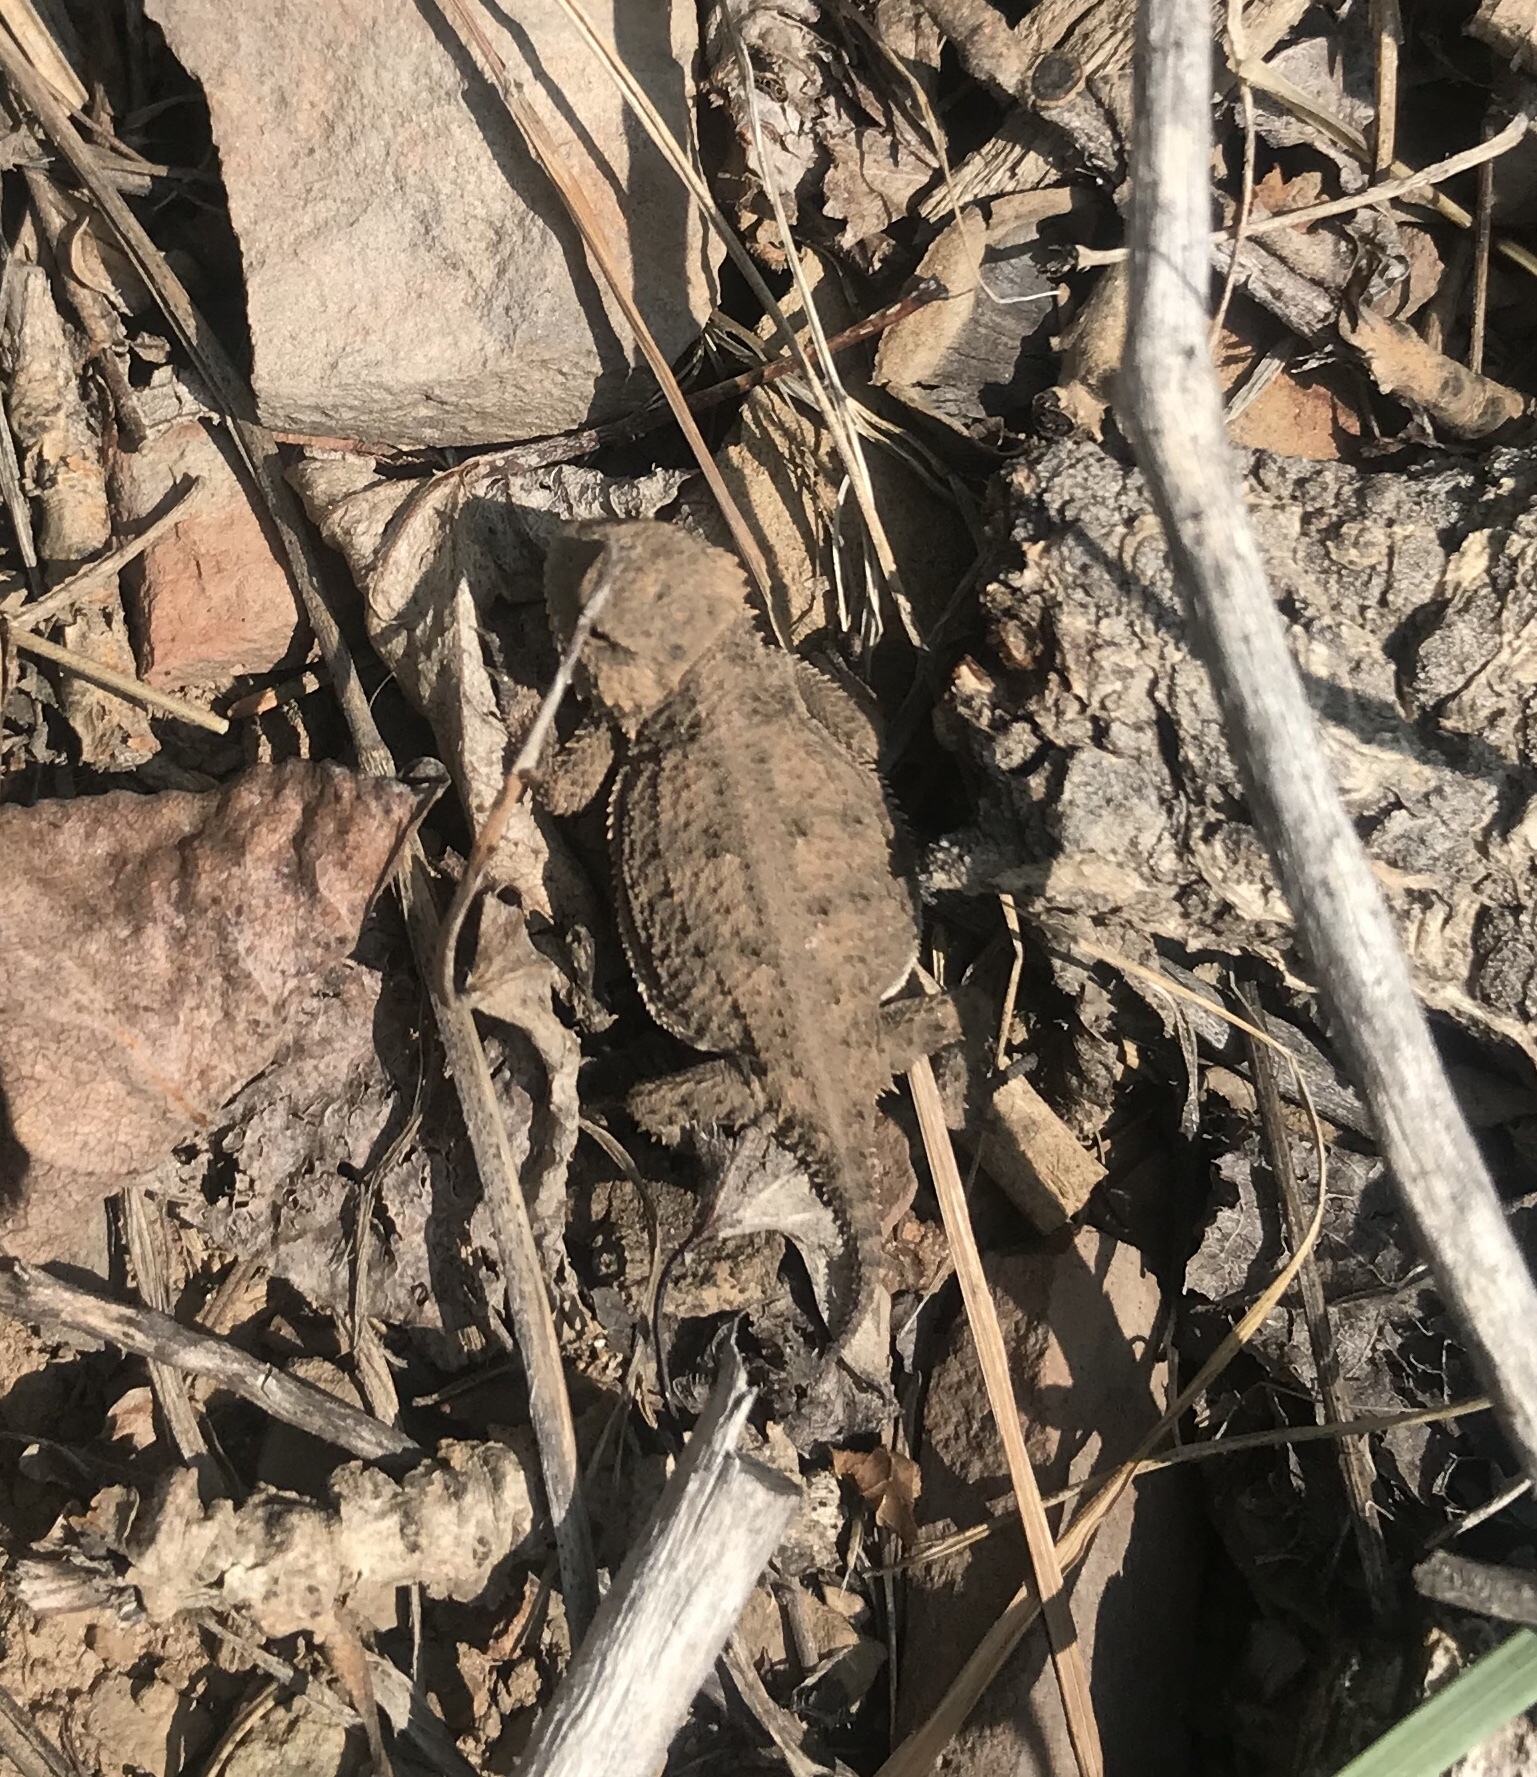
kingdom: Animalia
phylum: Chordata
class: Squamata
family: Phrynosomatidae
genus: Phrynosoma
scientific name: Phrynosoma hernandesi
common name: Greater short-horned lizard
